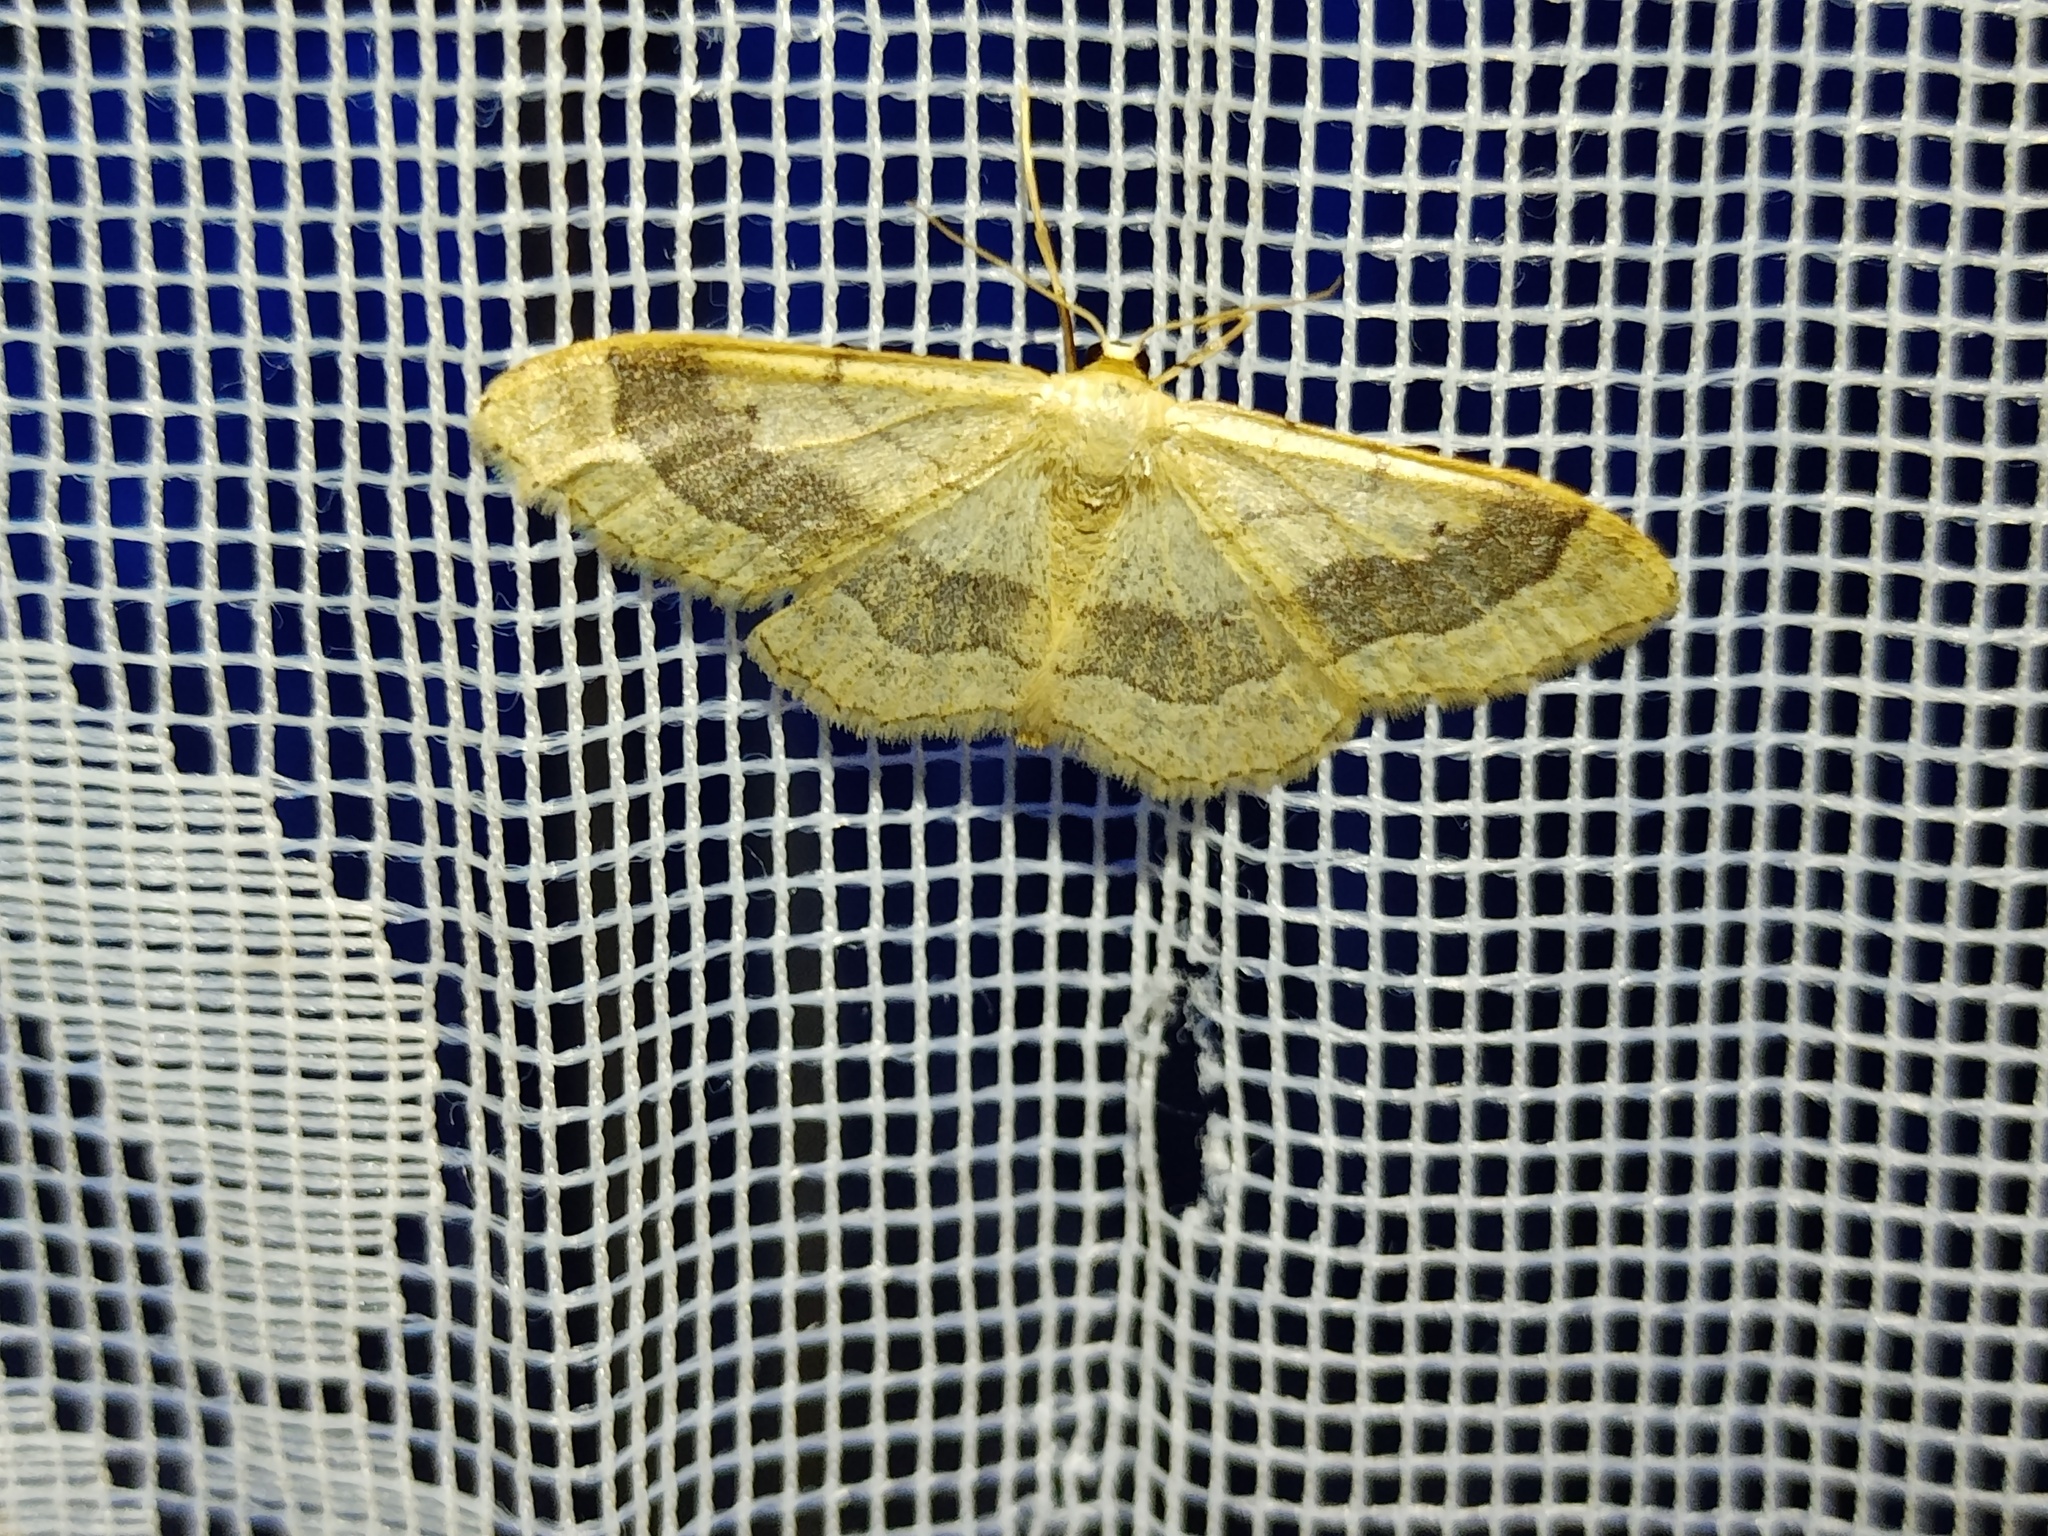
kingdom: Animalia
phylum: Arthropoda
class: Insecta
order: Lepidoptera
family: Geometridae
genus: Idaea
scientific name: Idaea aversata
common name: Riband wave
